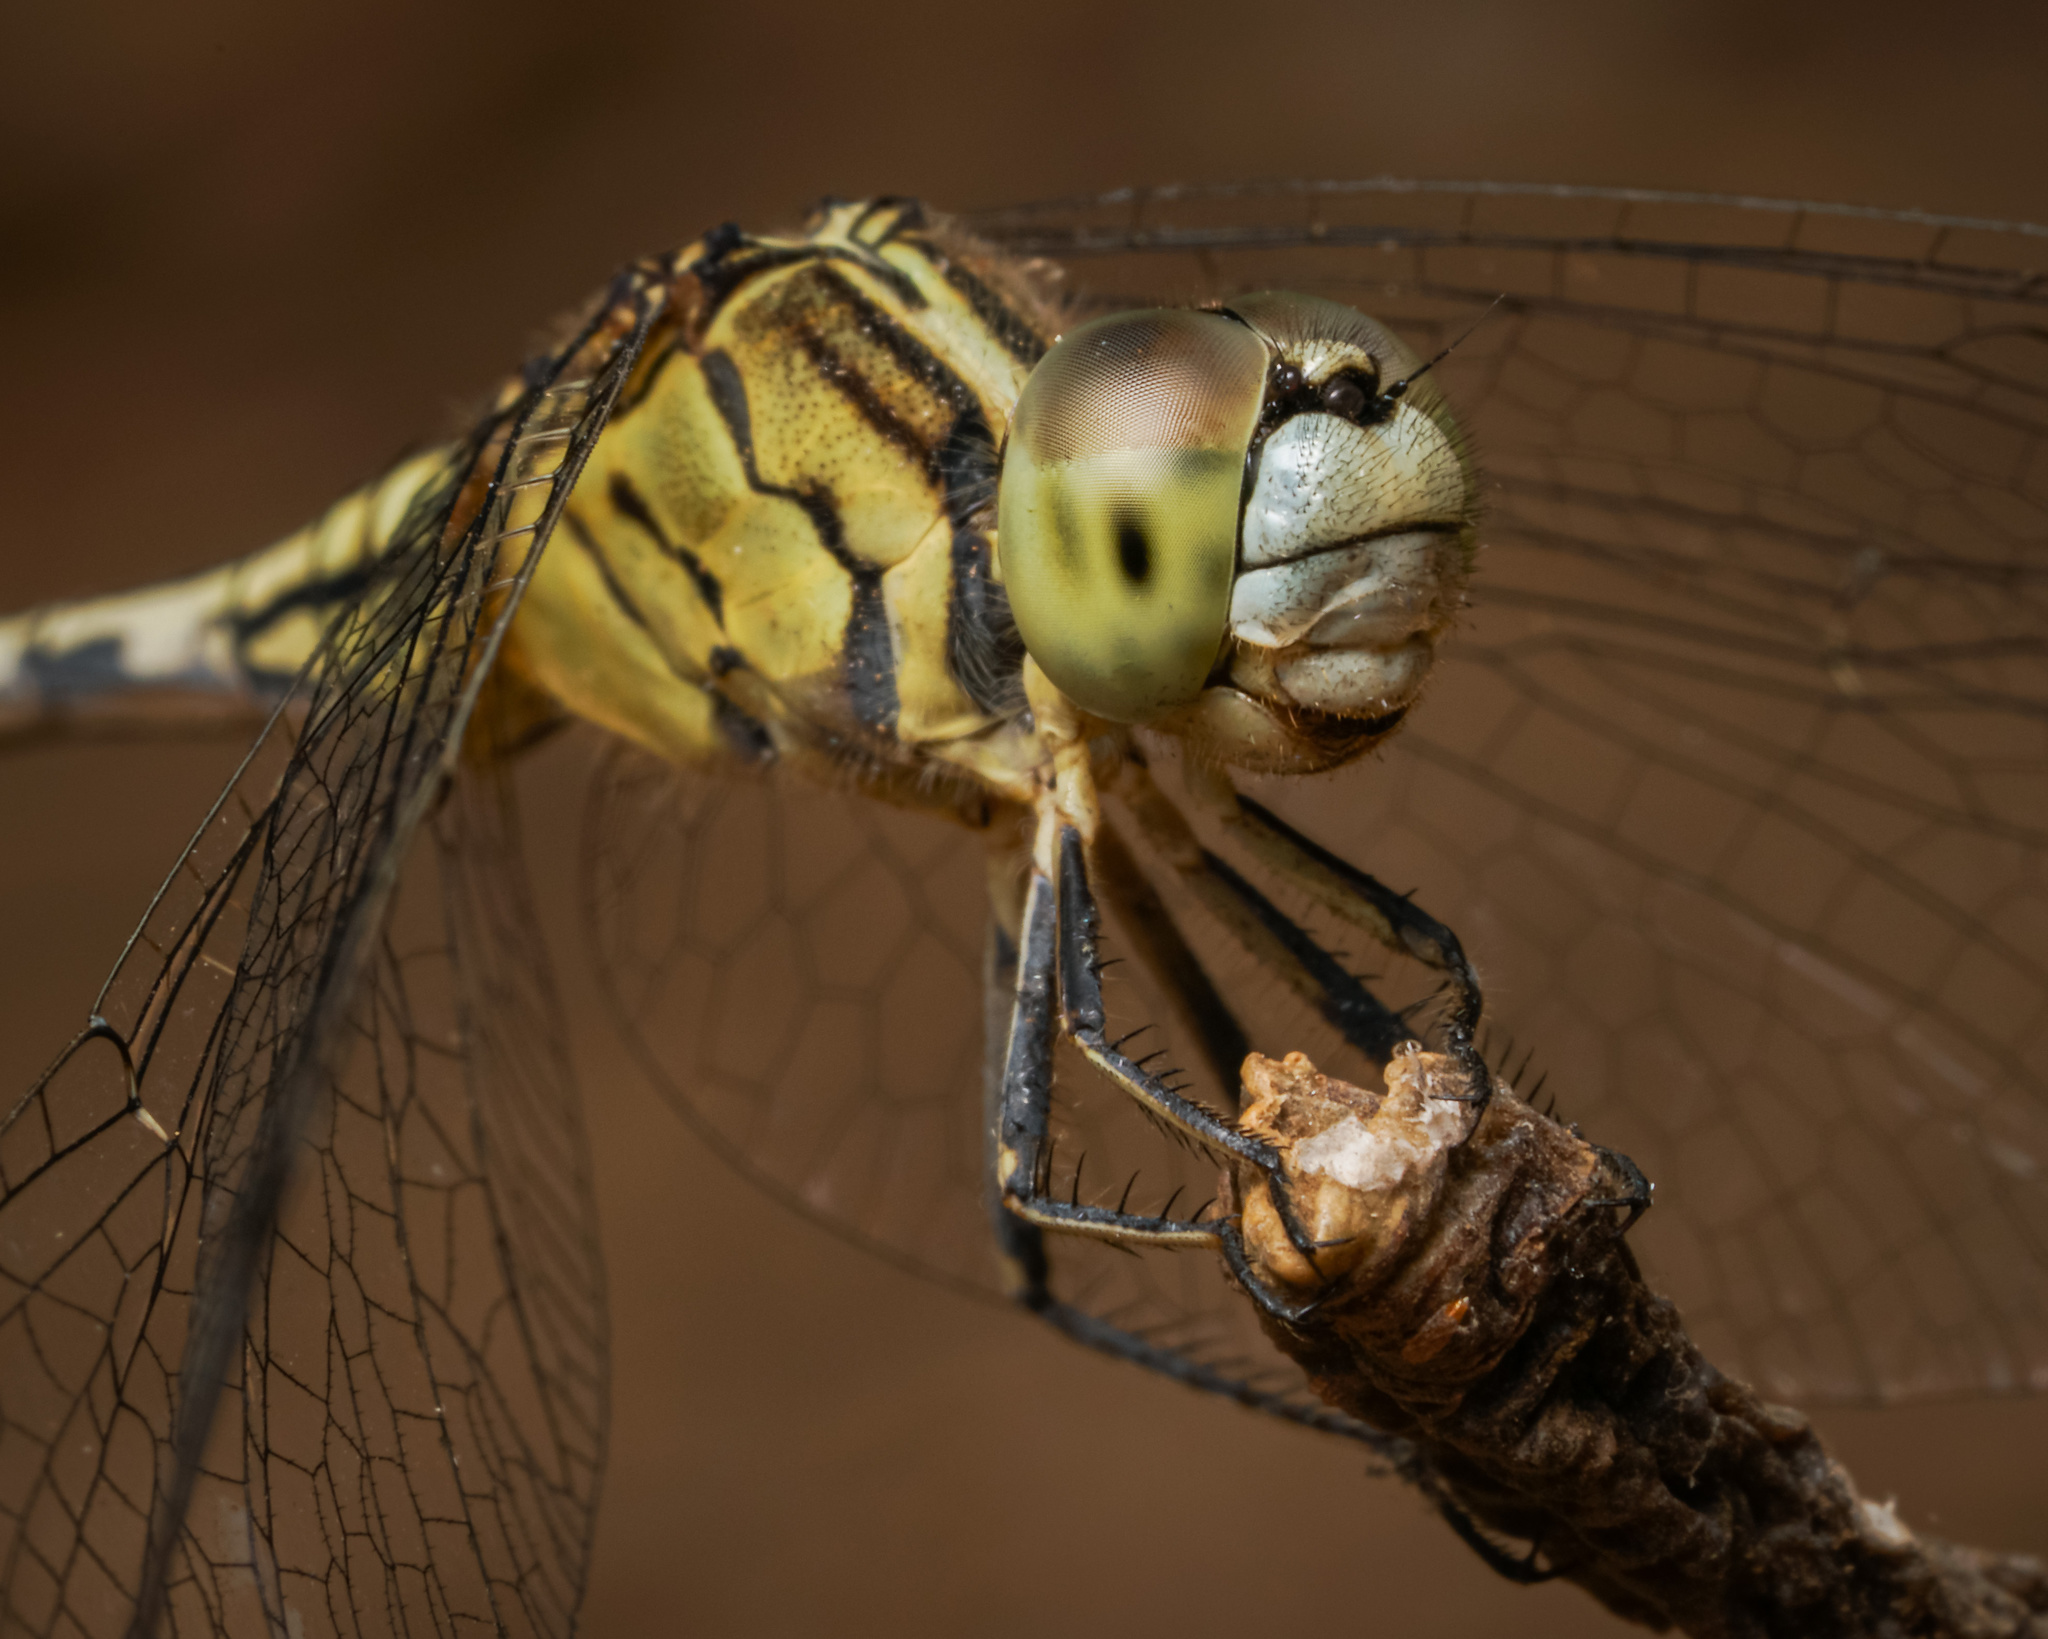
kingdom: Animalia
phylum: Arthropoda
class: Insecta
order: Odonata
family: Libellulidae
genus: Diplacodes
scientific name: Diplacodes trivialis
